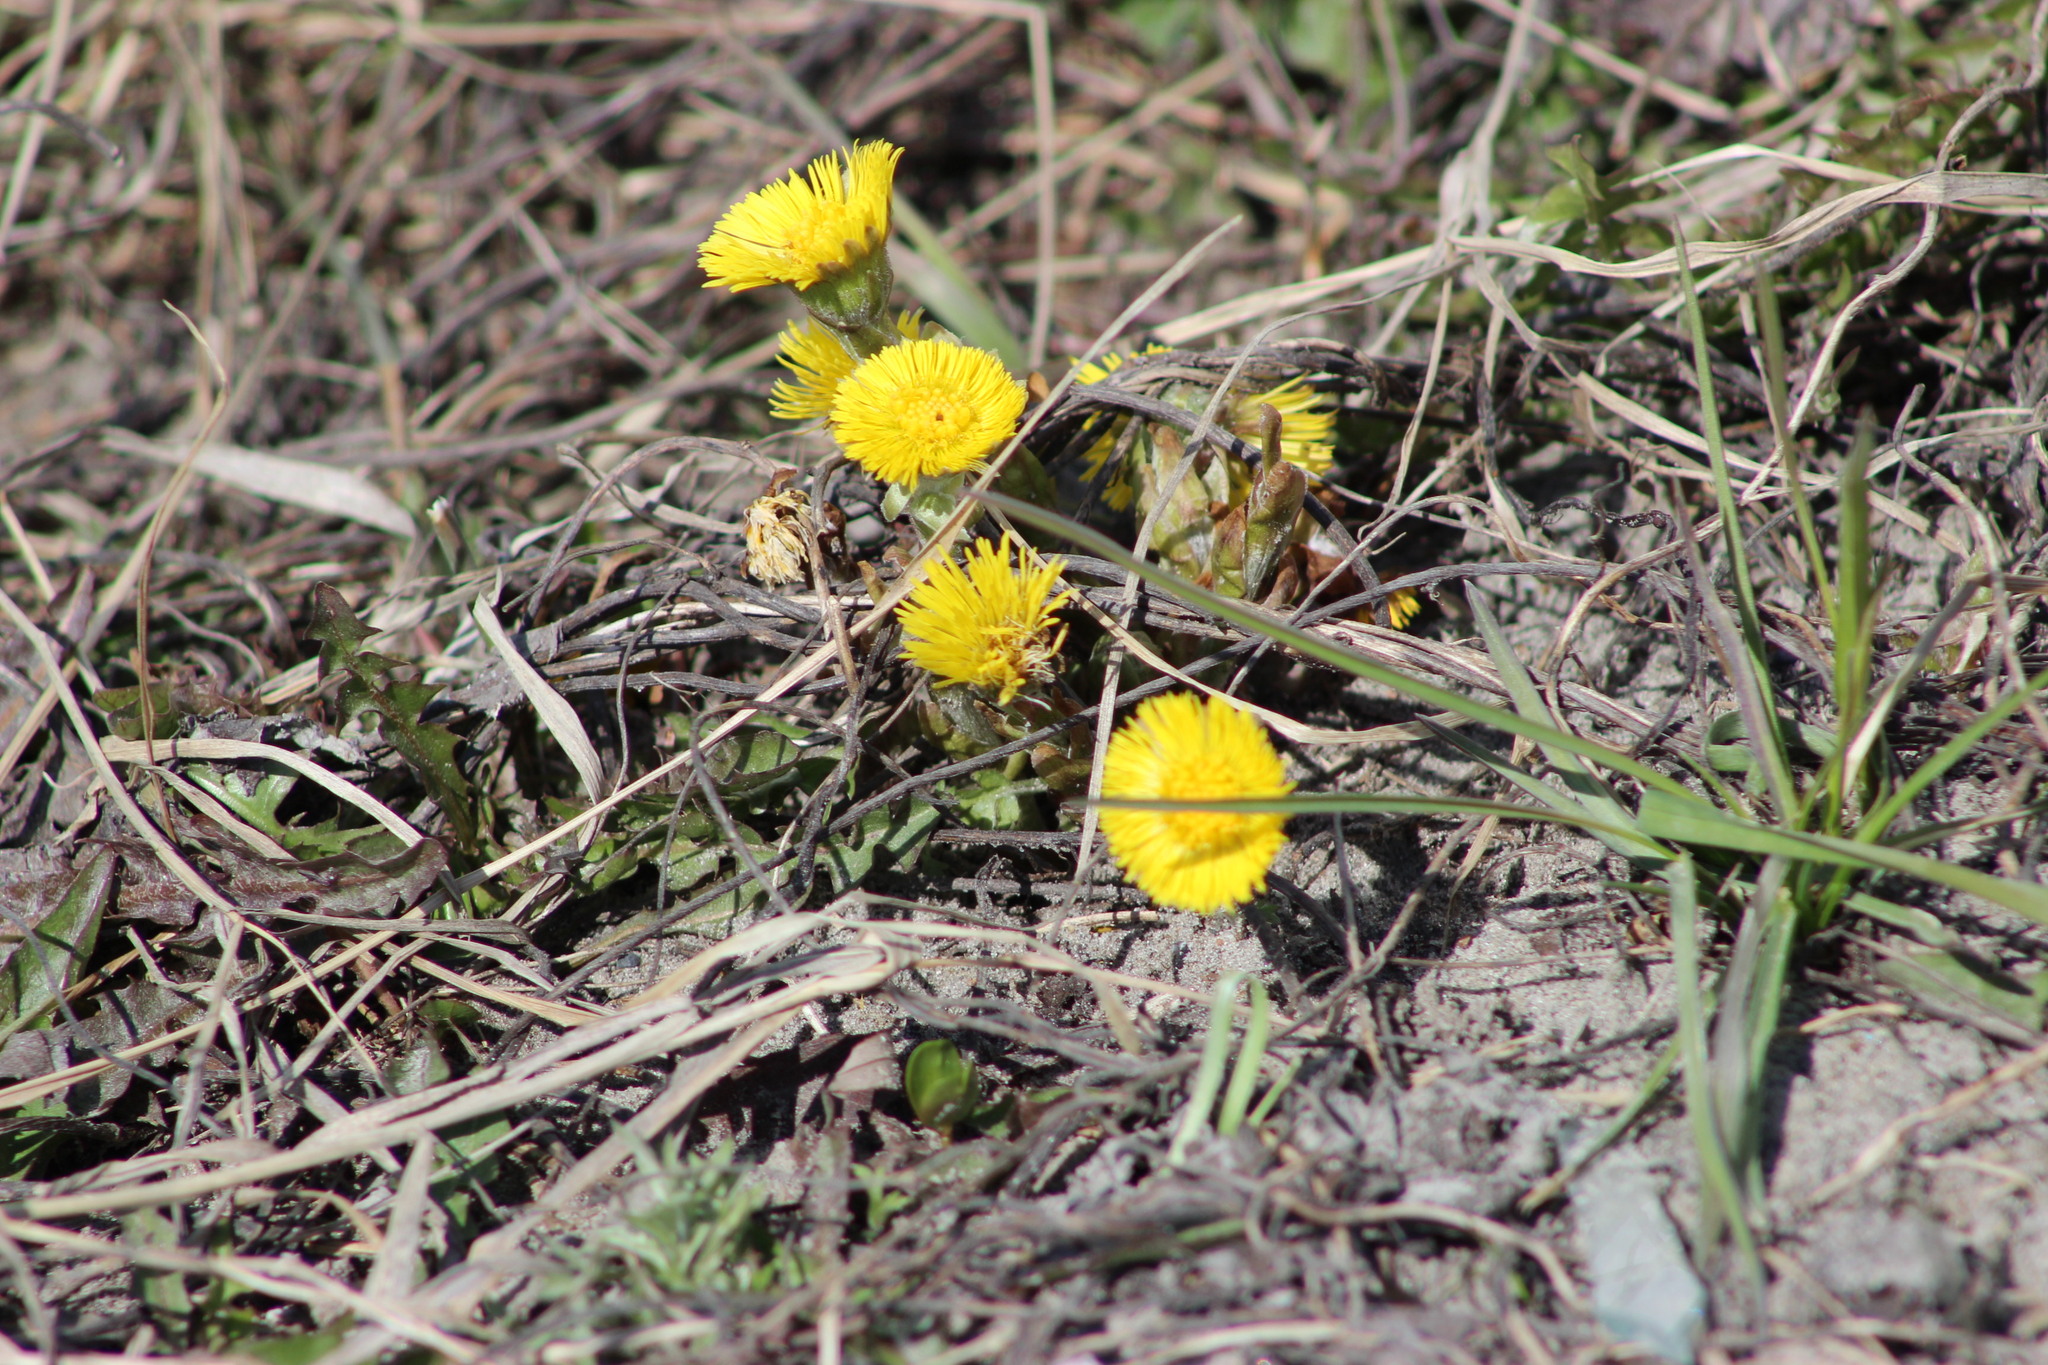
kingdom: Plantae
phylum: Tracheophyta
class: Magnoliopsida
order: Asterales
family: Asteraceae
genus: Tussilago
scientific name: Tussilago farfara
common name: Coltsfoot
